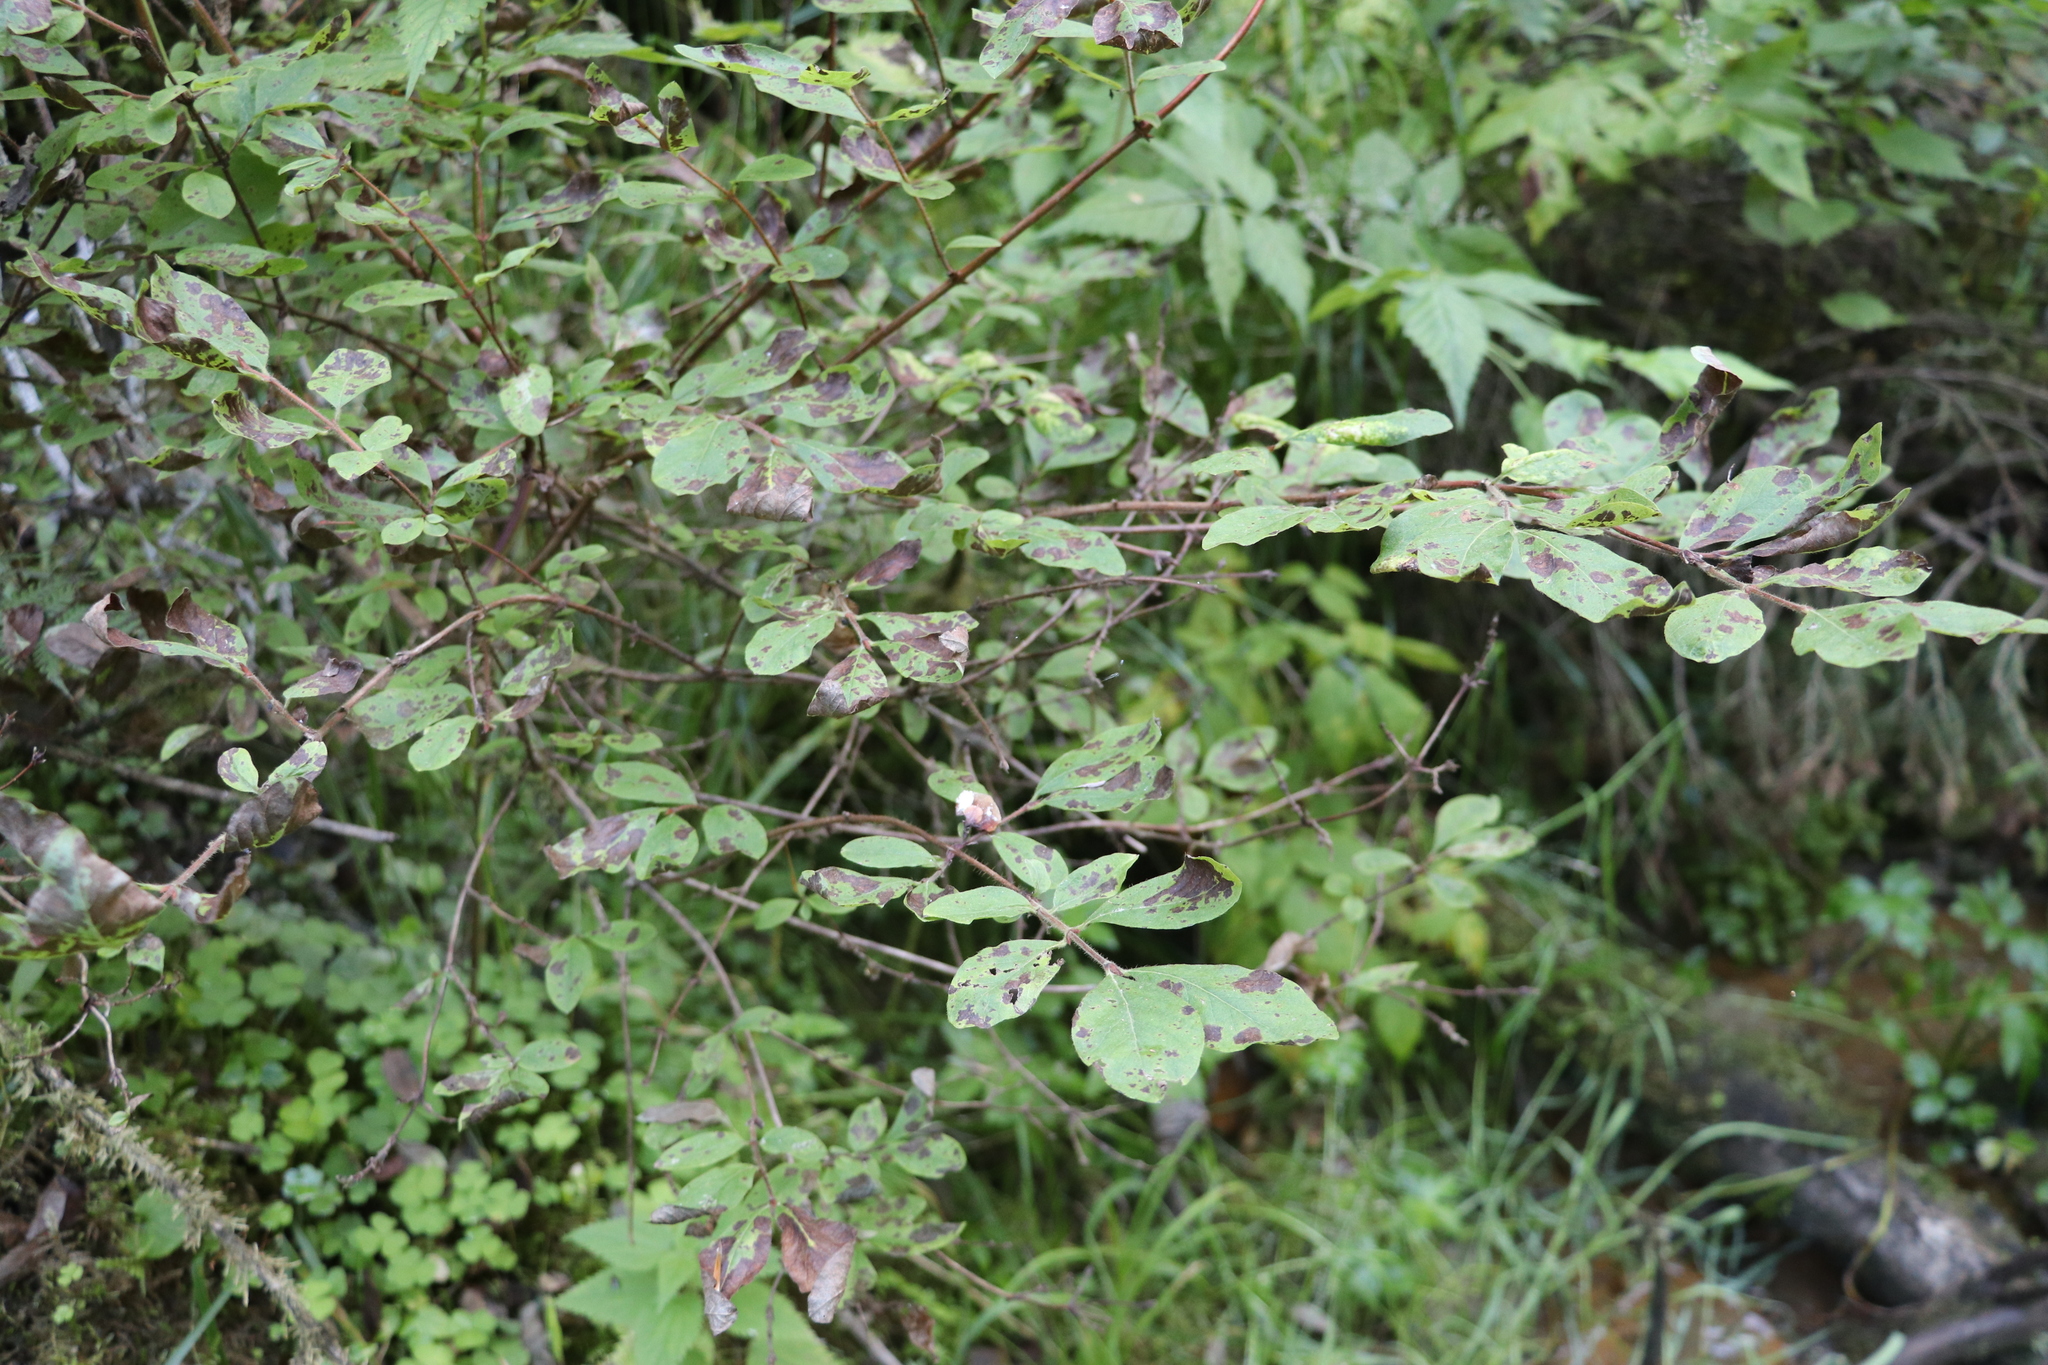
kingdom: Plantae
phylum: Tracheophyta
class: Magnoliopsida
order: Dipsacales
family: Caprifoliaceae
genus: Lonicera
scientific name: Lonicera caerulea
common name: Blue honeysuckle
